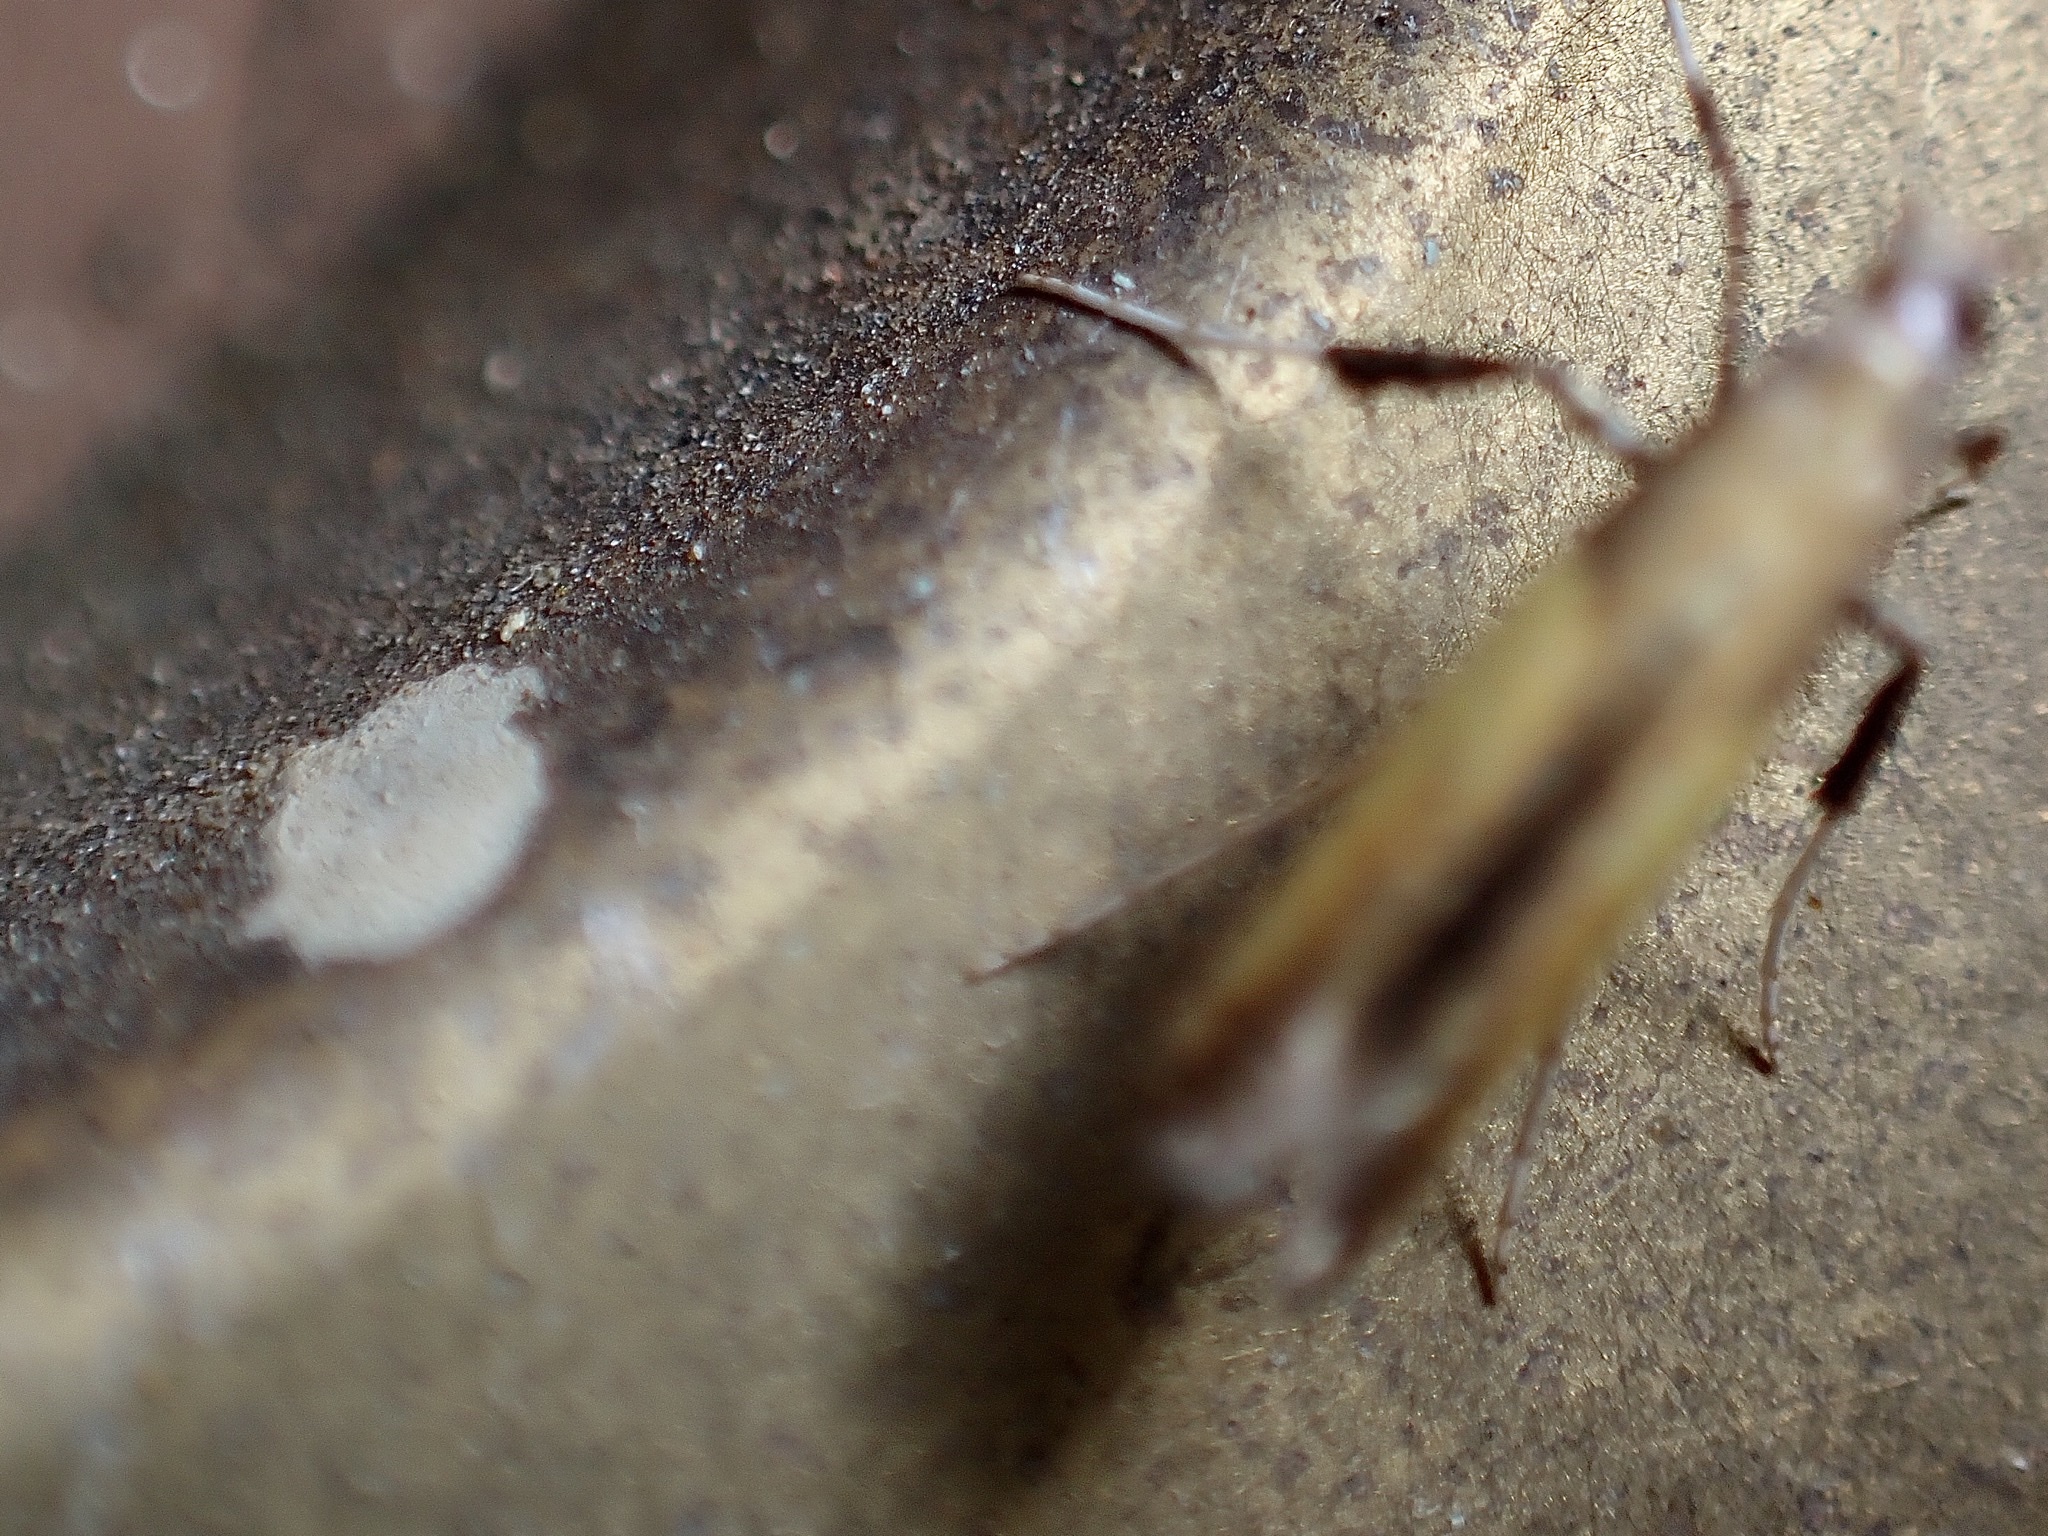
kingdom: Animalia
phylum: Arthropoda
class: Insecta
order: Lepidoptera
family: Gracillariidae
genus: Caloptilia
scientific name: Caloptilia
